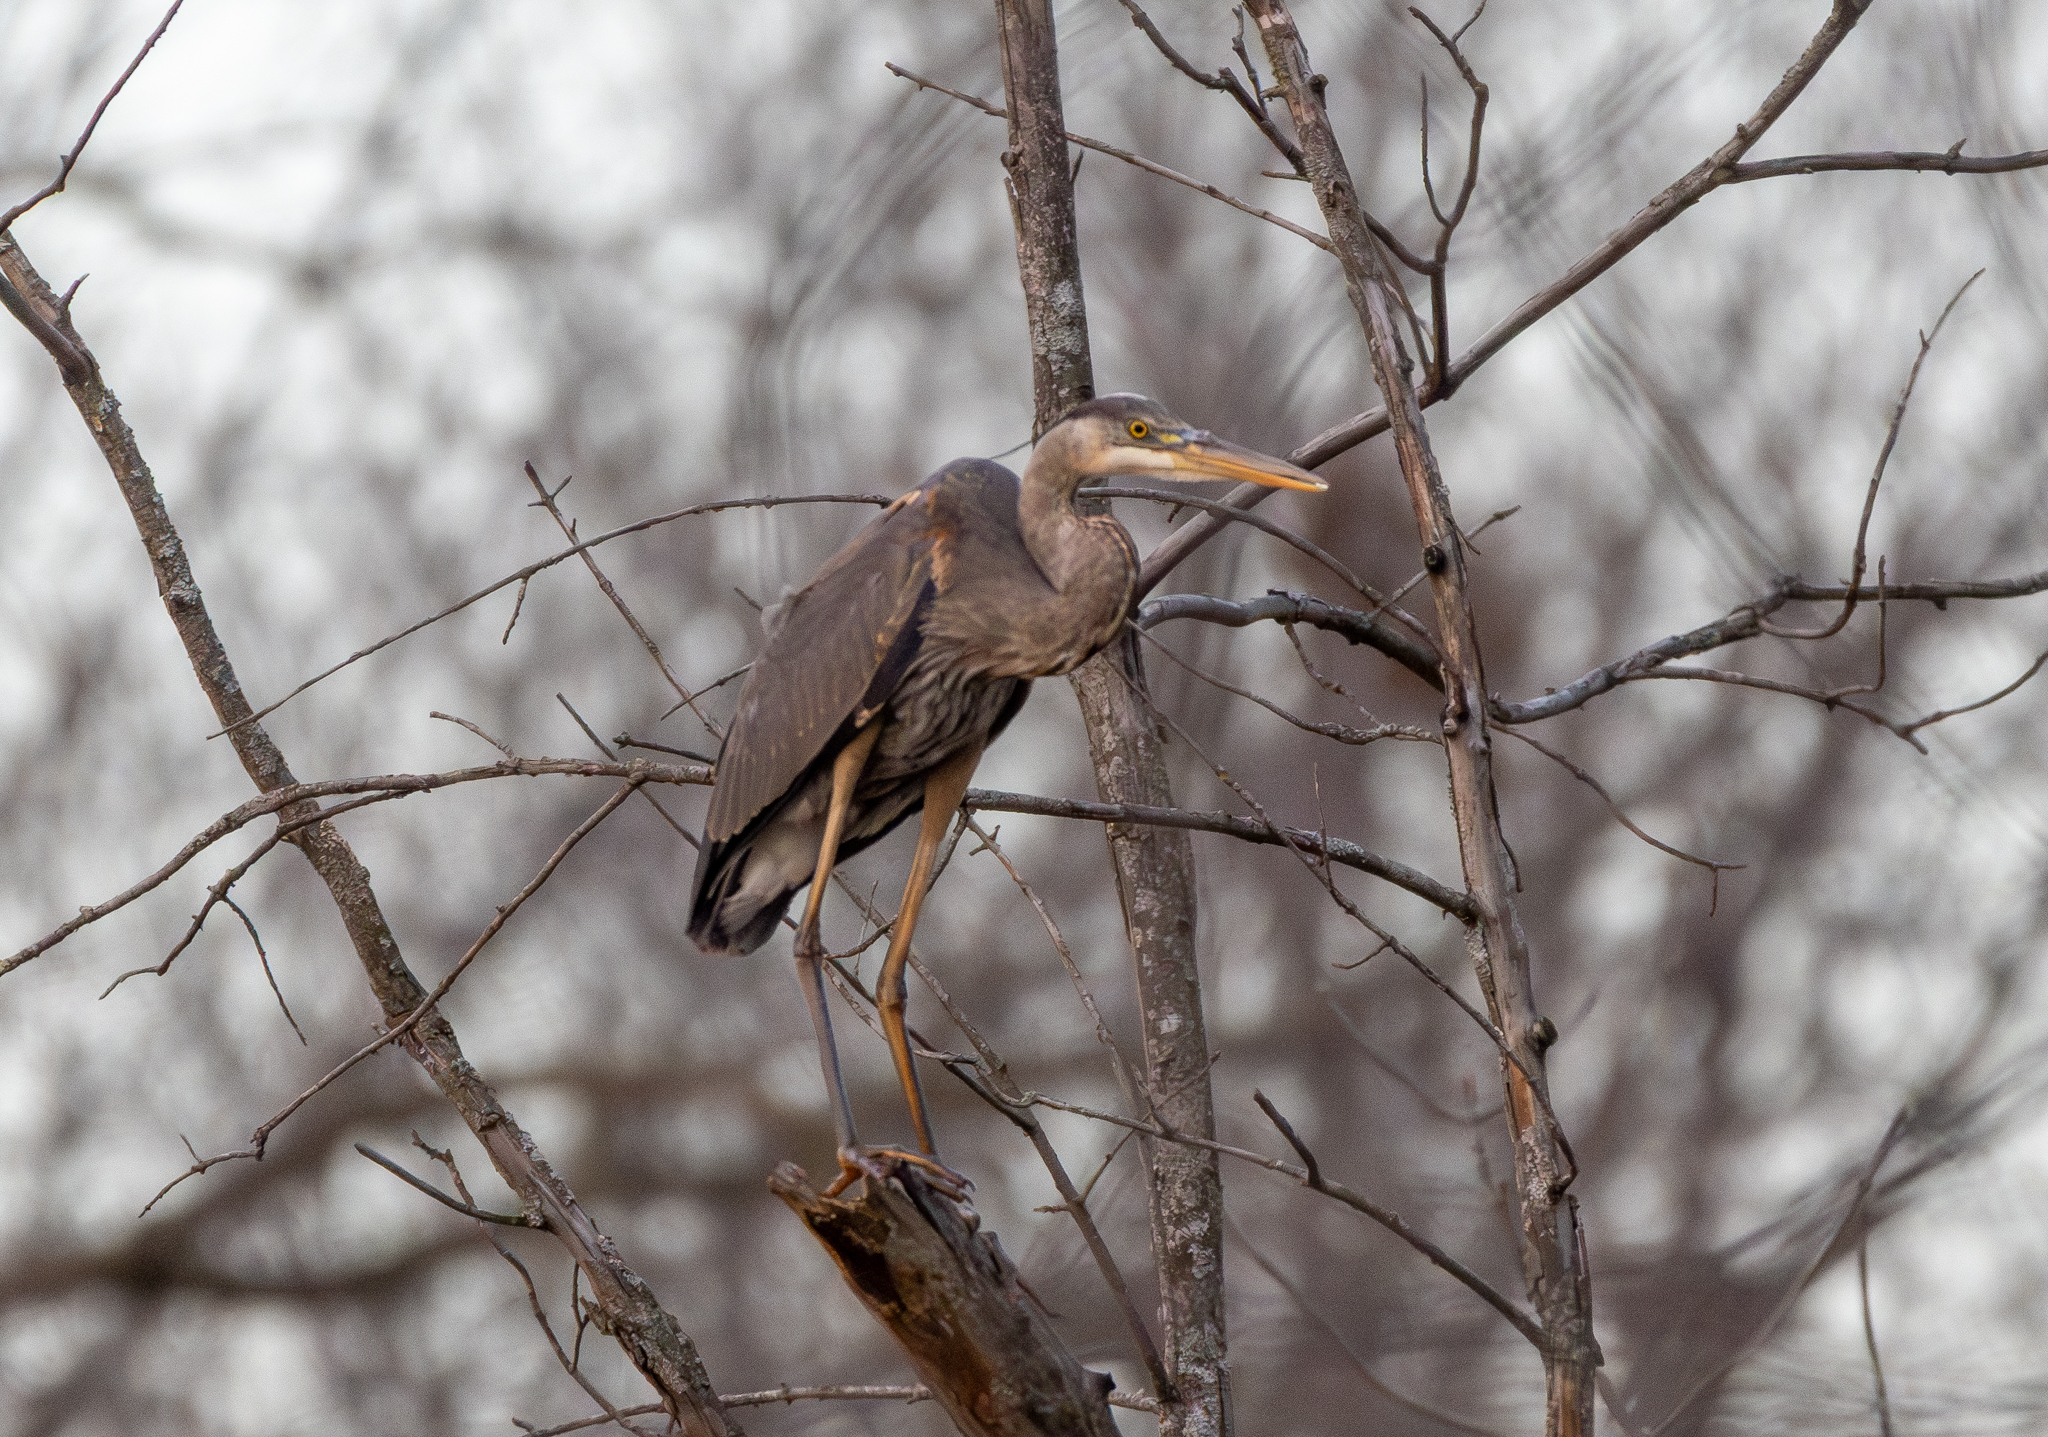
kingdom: Animalia
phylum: Chordata
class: Aves
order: Pelecaniformes
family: Ardeidae
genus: Ardea
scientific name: Ardea herodias
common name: Great blue heron
